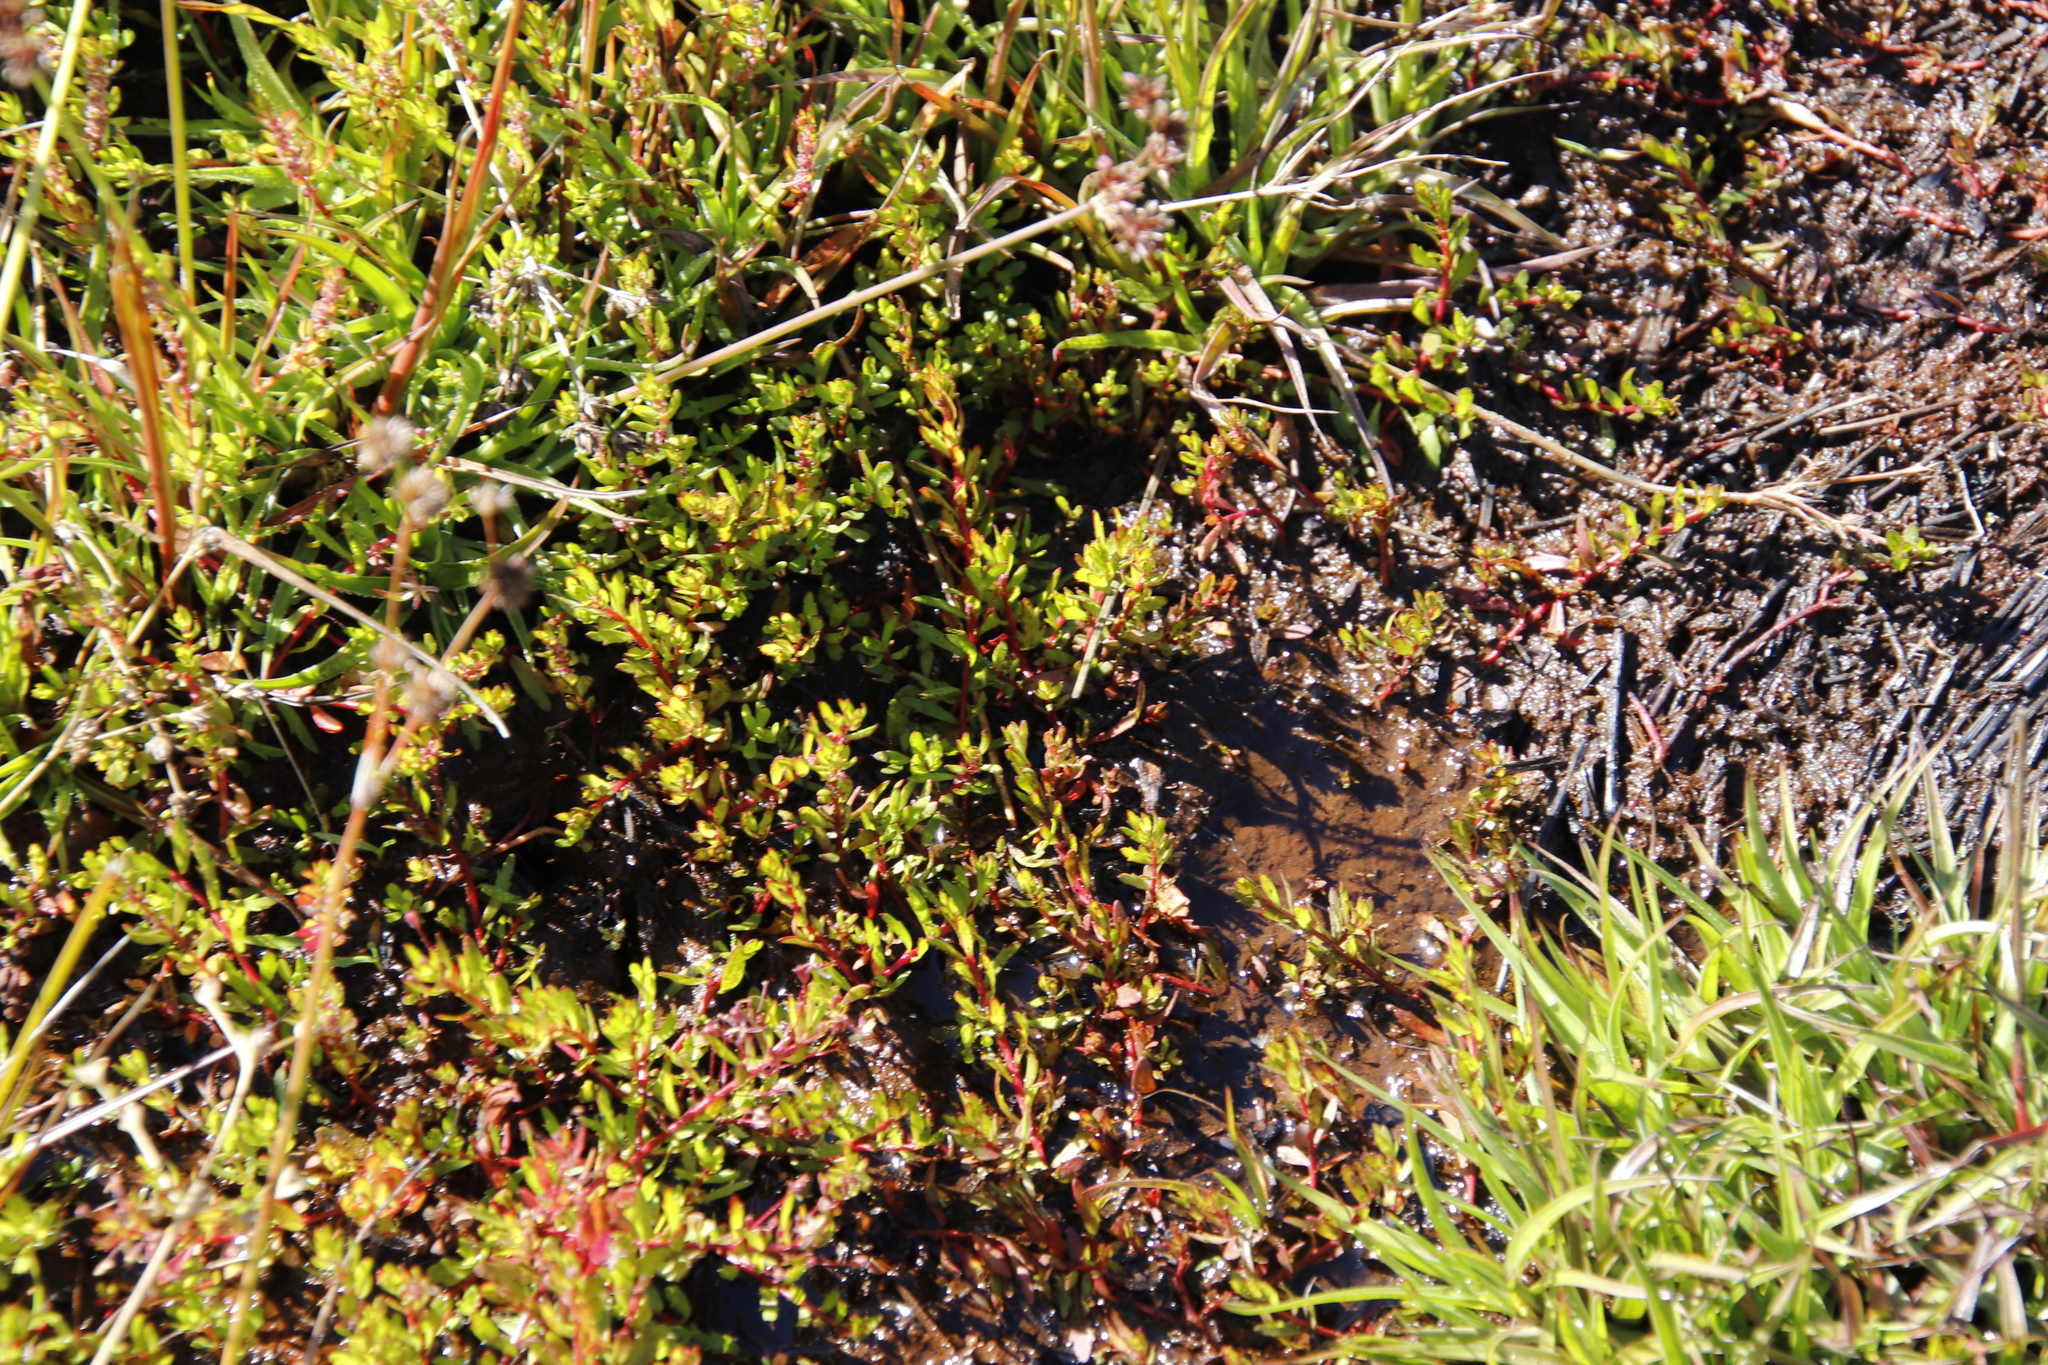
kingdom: Plantae
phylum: Tracheophyta
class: Magnoliopsida
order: Saxifragales
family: Haloragaceae
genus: Laurembergia
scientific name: Laurembergia repens
